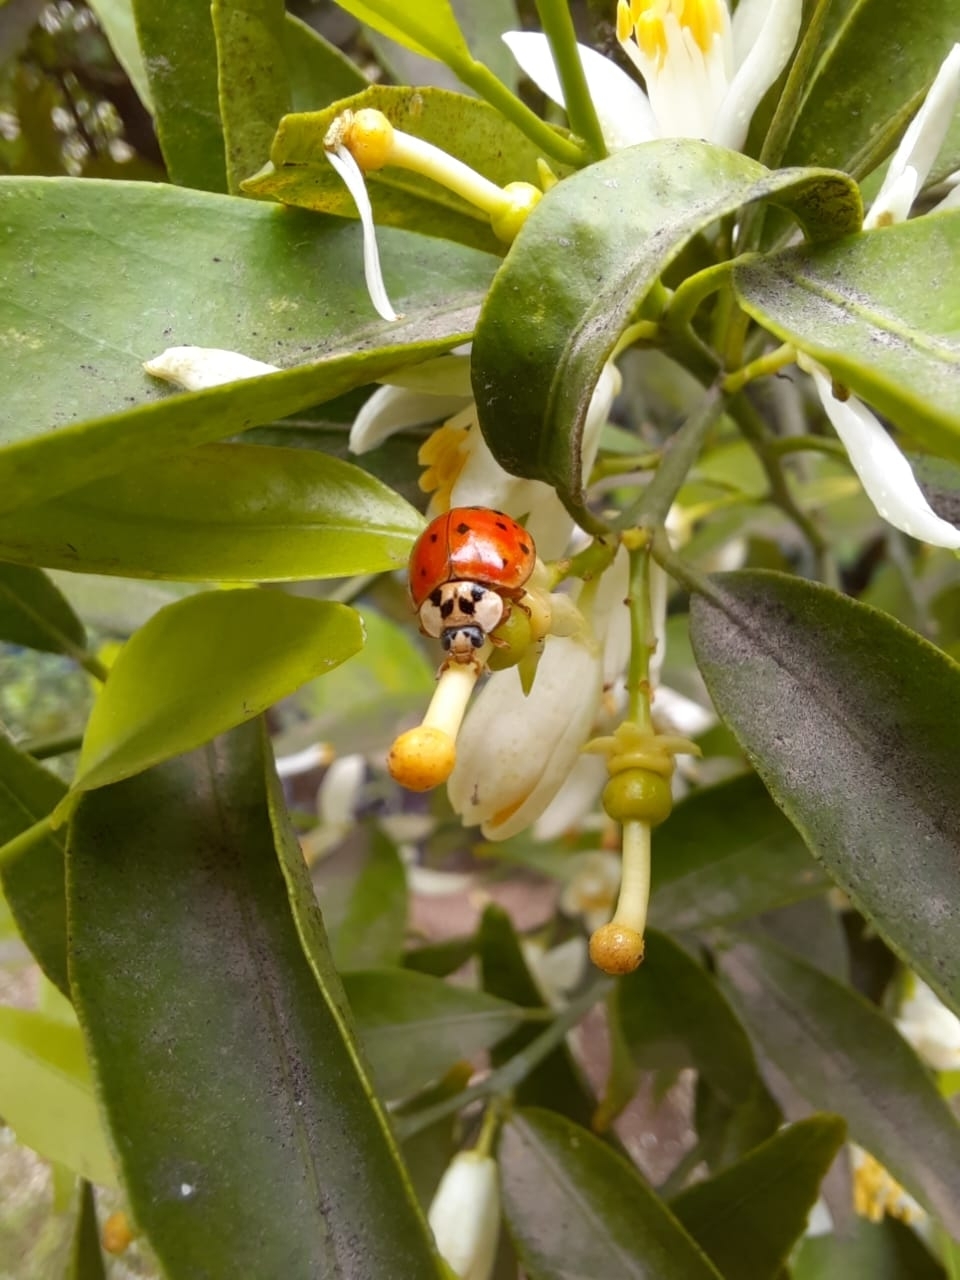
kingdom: Animalia
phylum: Arthropoda
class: Insecta
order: Coleoptera
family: Coccinellidae
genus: Harmonia
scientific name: Harmonia axyridis
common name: Harlequin ladybird
